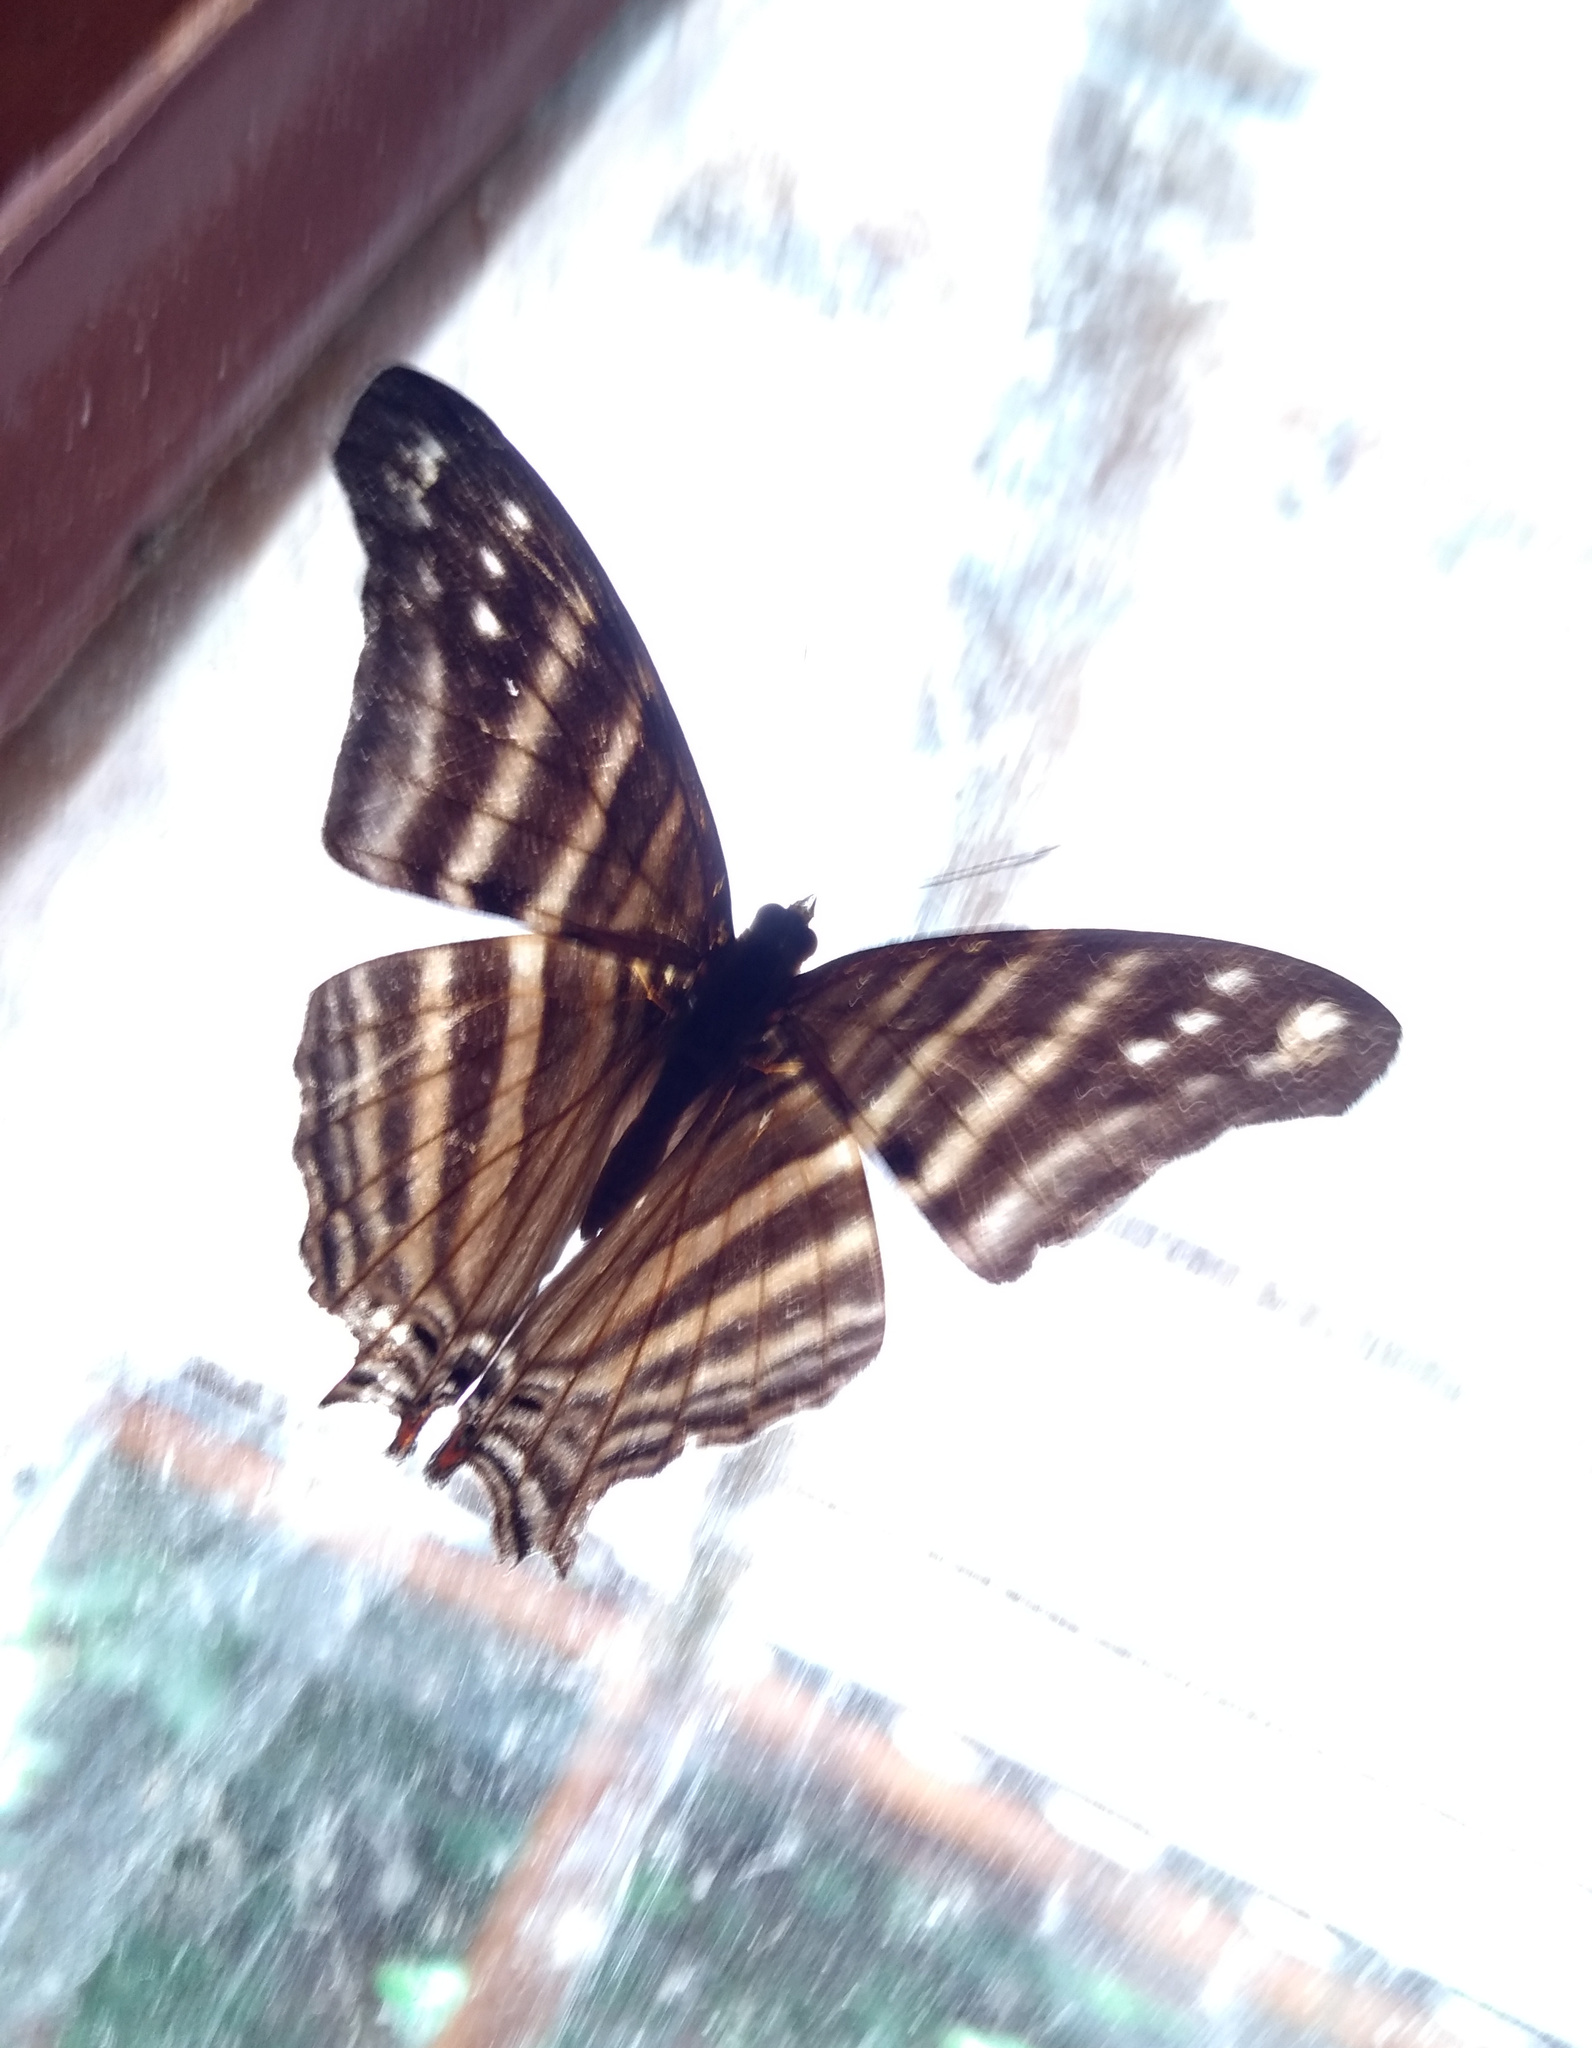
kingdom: Animalia
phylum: Arthropoda
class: Insecta
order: Lepidoptera
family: Nymphalidae
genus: Marpesia
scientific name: Marpesia chiron
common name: Many-banded daggerwing
